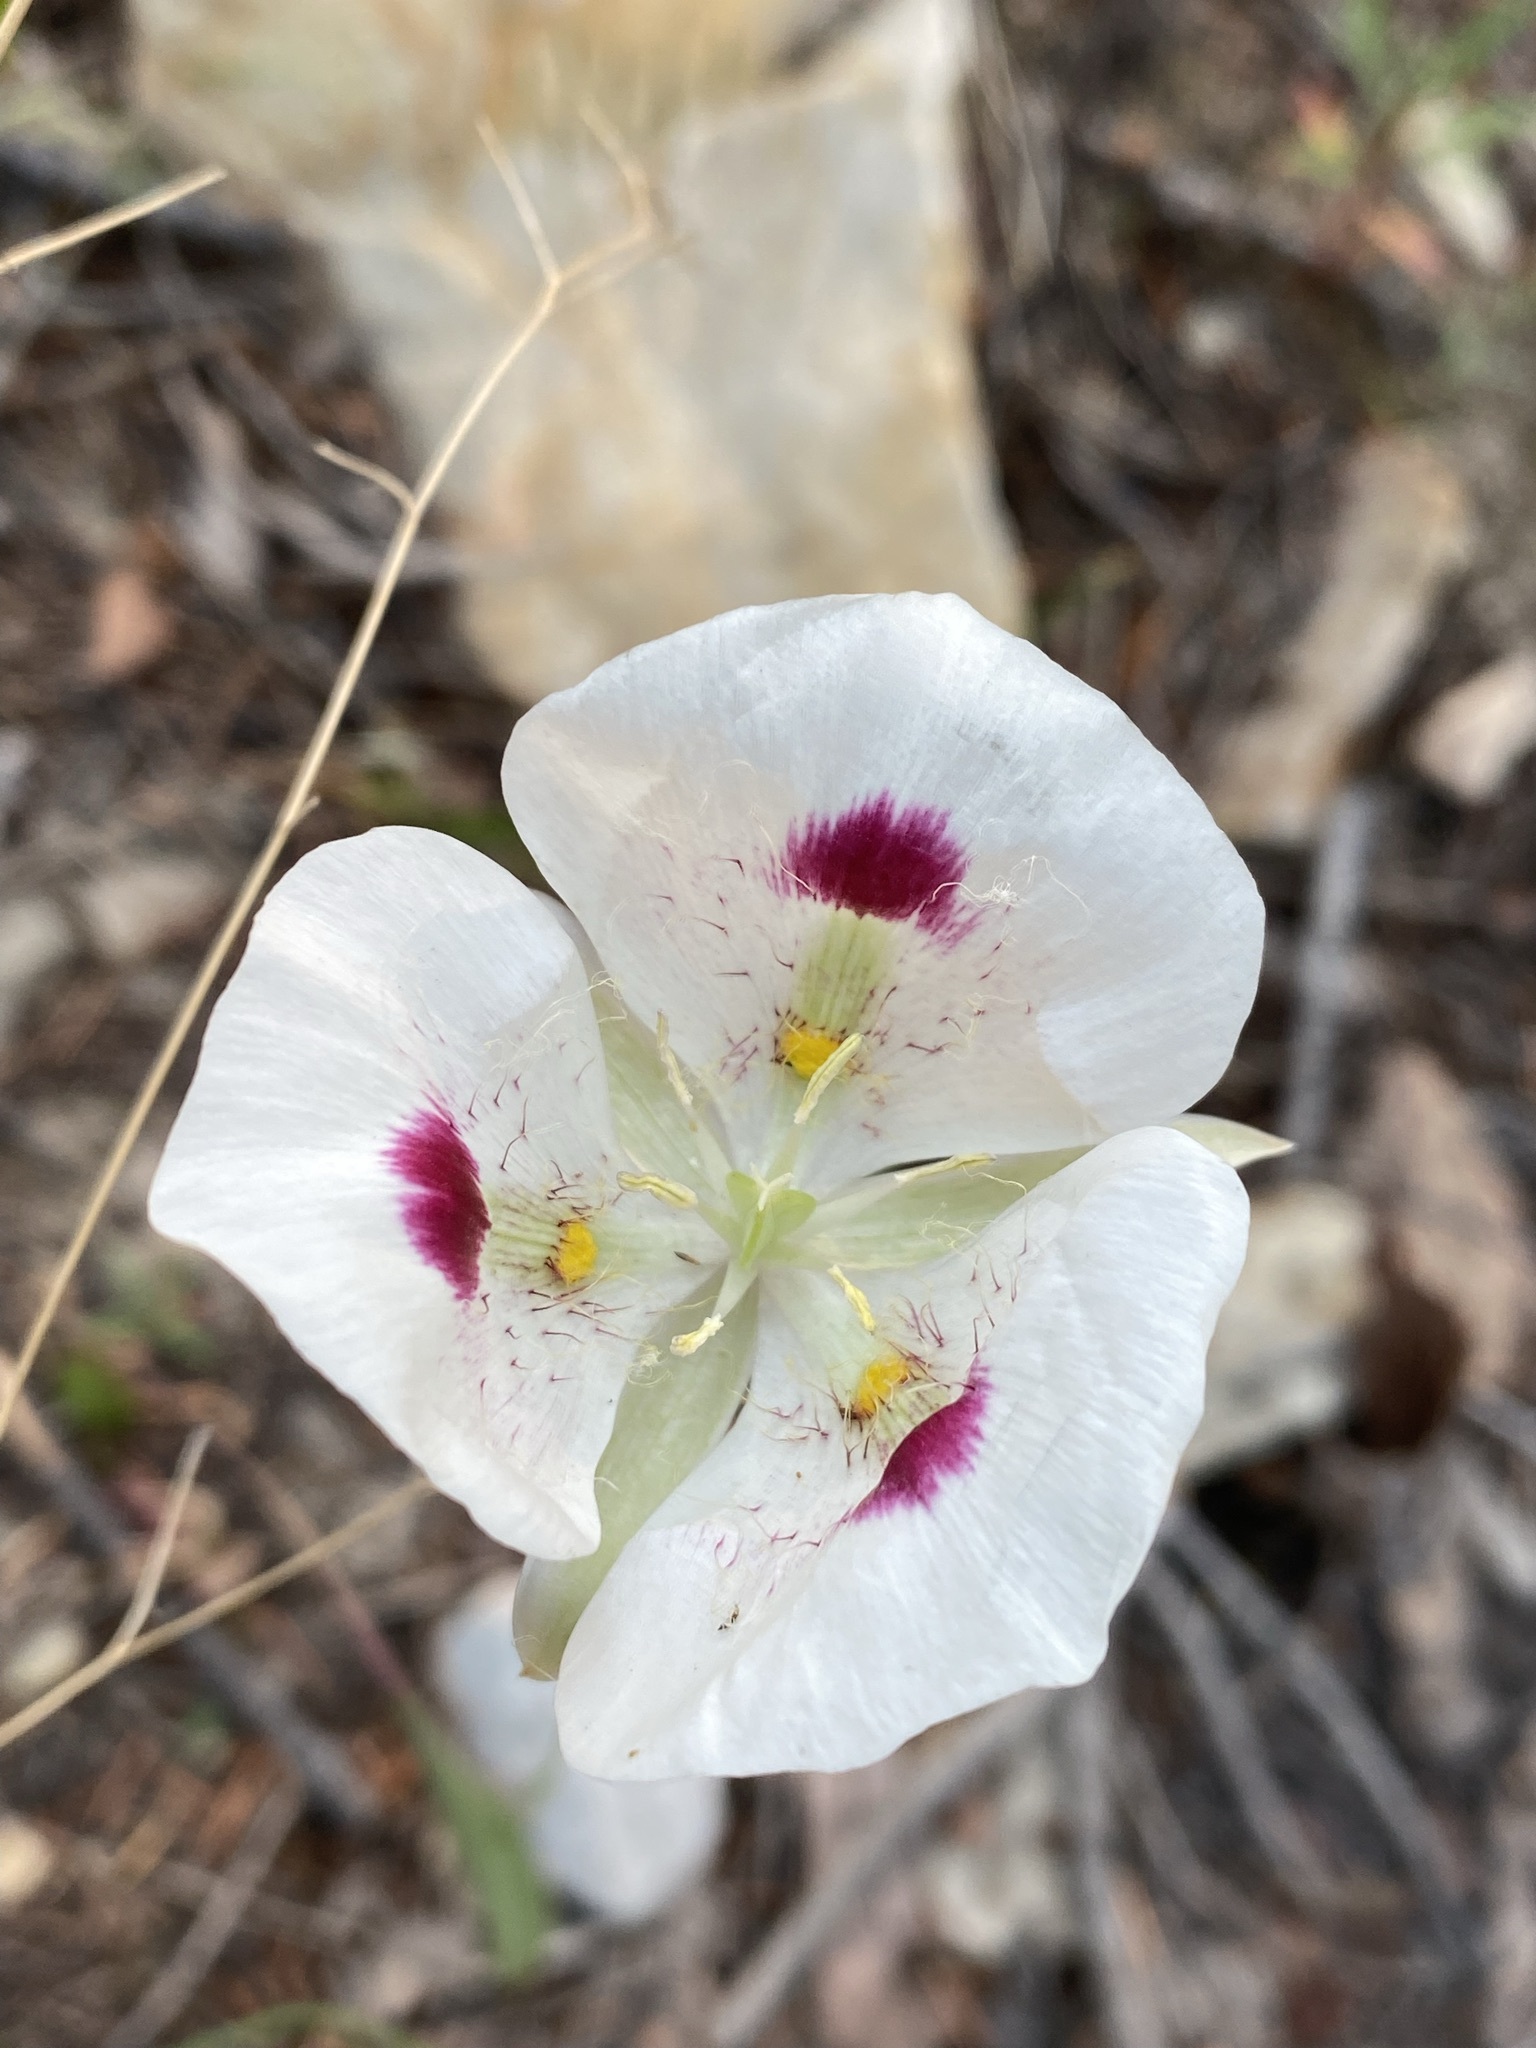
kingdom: Plantae
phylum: Tracheophyta
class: Liliopsida
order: Liliales
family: Liliaceae
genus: Calochortus
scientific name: Calochortus eurycarpus
